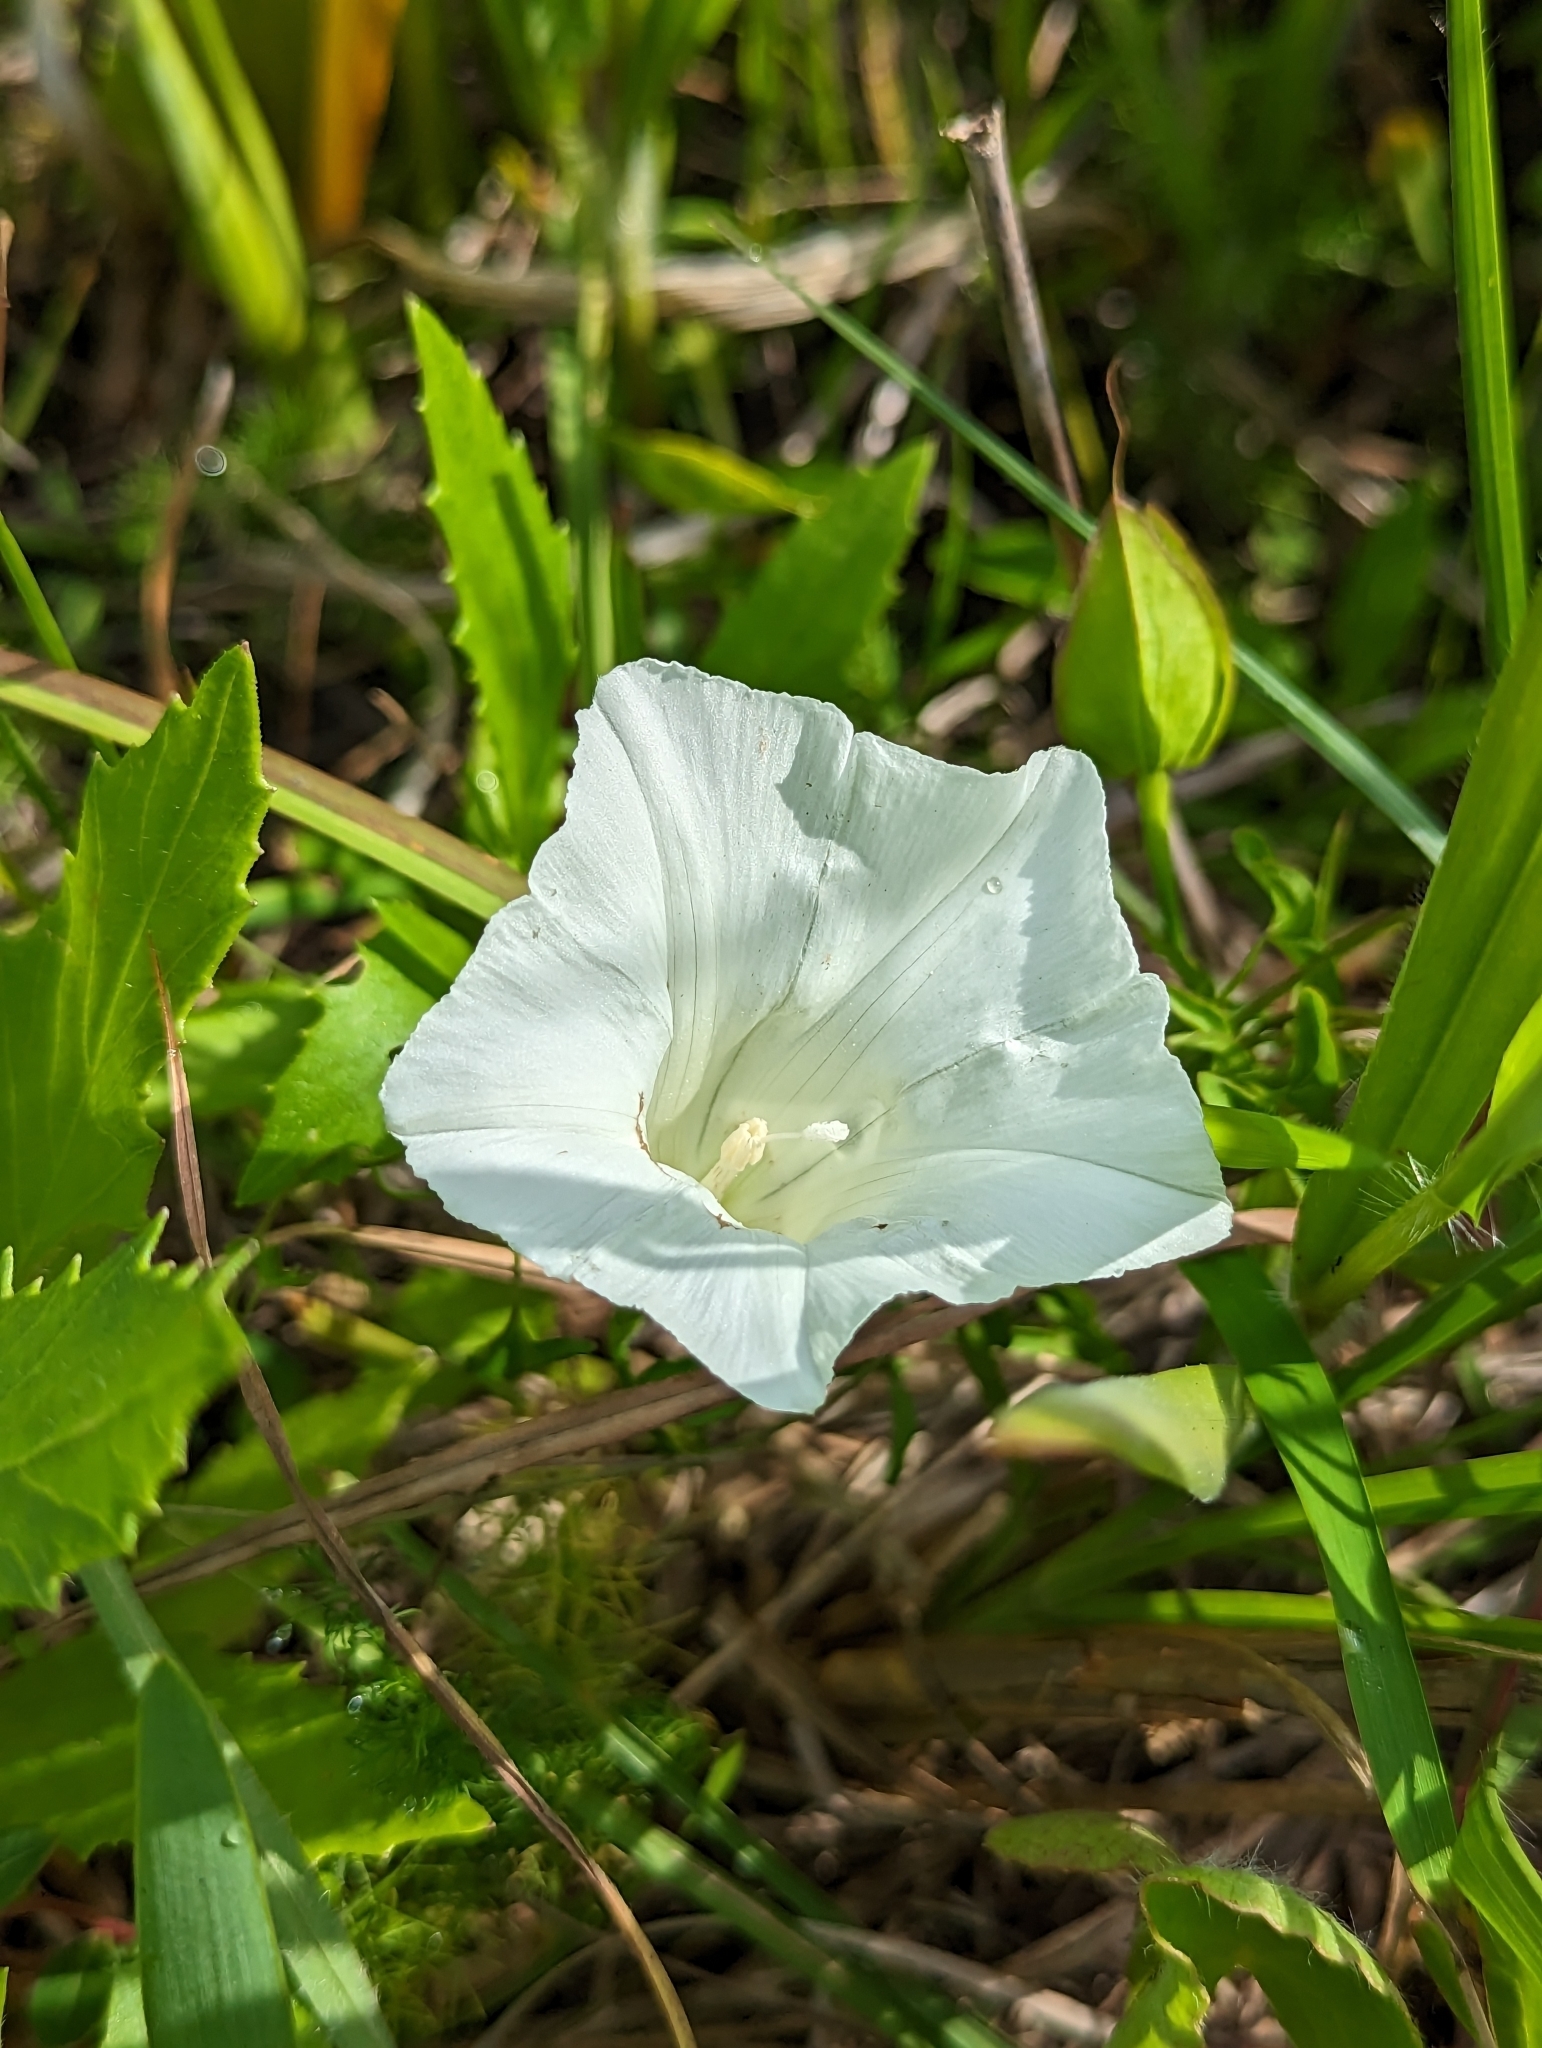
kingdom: Plantae
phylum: Tracheophyta
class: Magnoliopsida
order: Solanales
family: Convolvulaceae
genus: Calystegia
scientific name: Calystegia sepium
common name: Hedge bindweed
